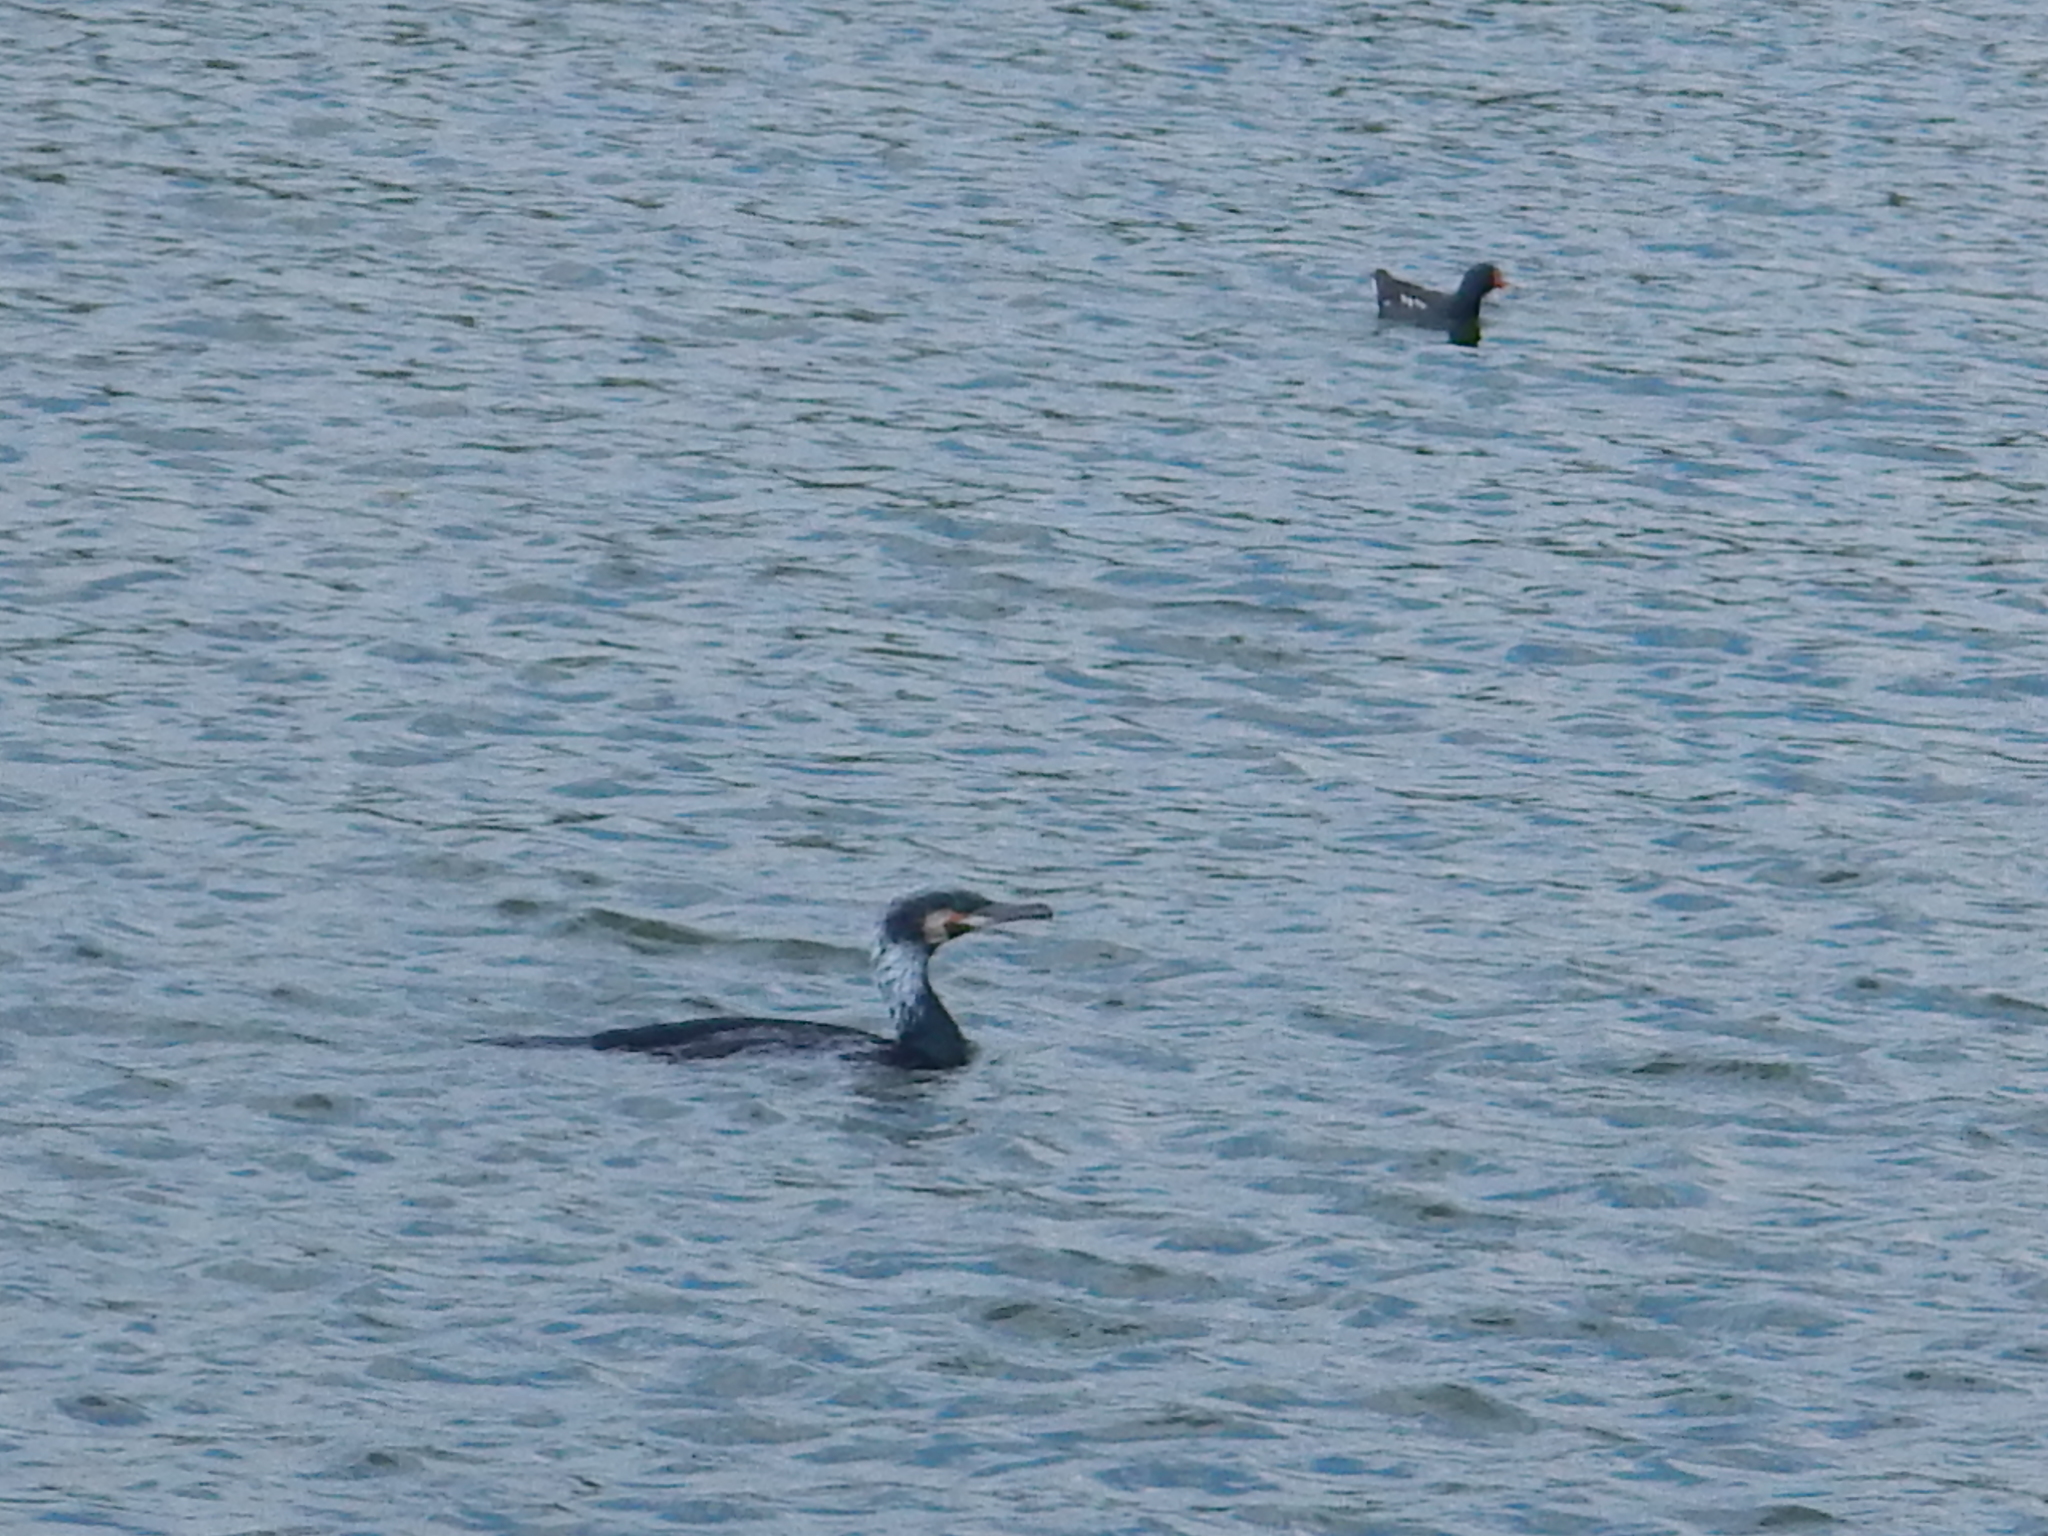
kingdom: Animalia
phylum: Chordata
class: Aves
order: Suliformes
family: Phalacrocoracidae
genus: Phalacrocorax
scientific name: Phalacrocorax carbo
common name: Great cormorant
